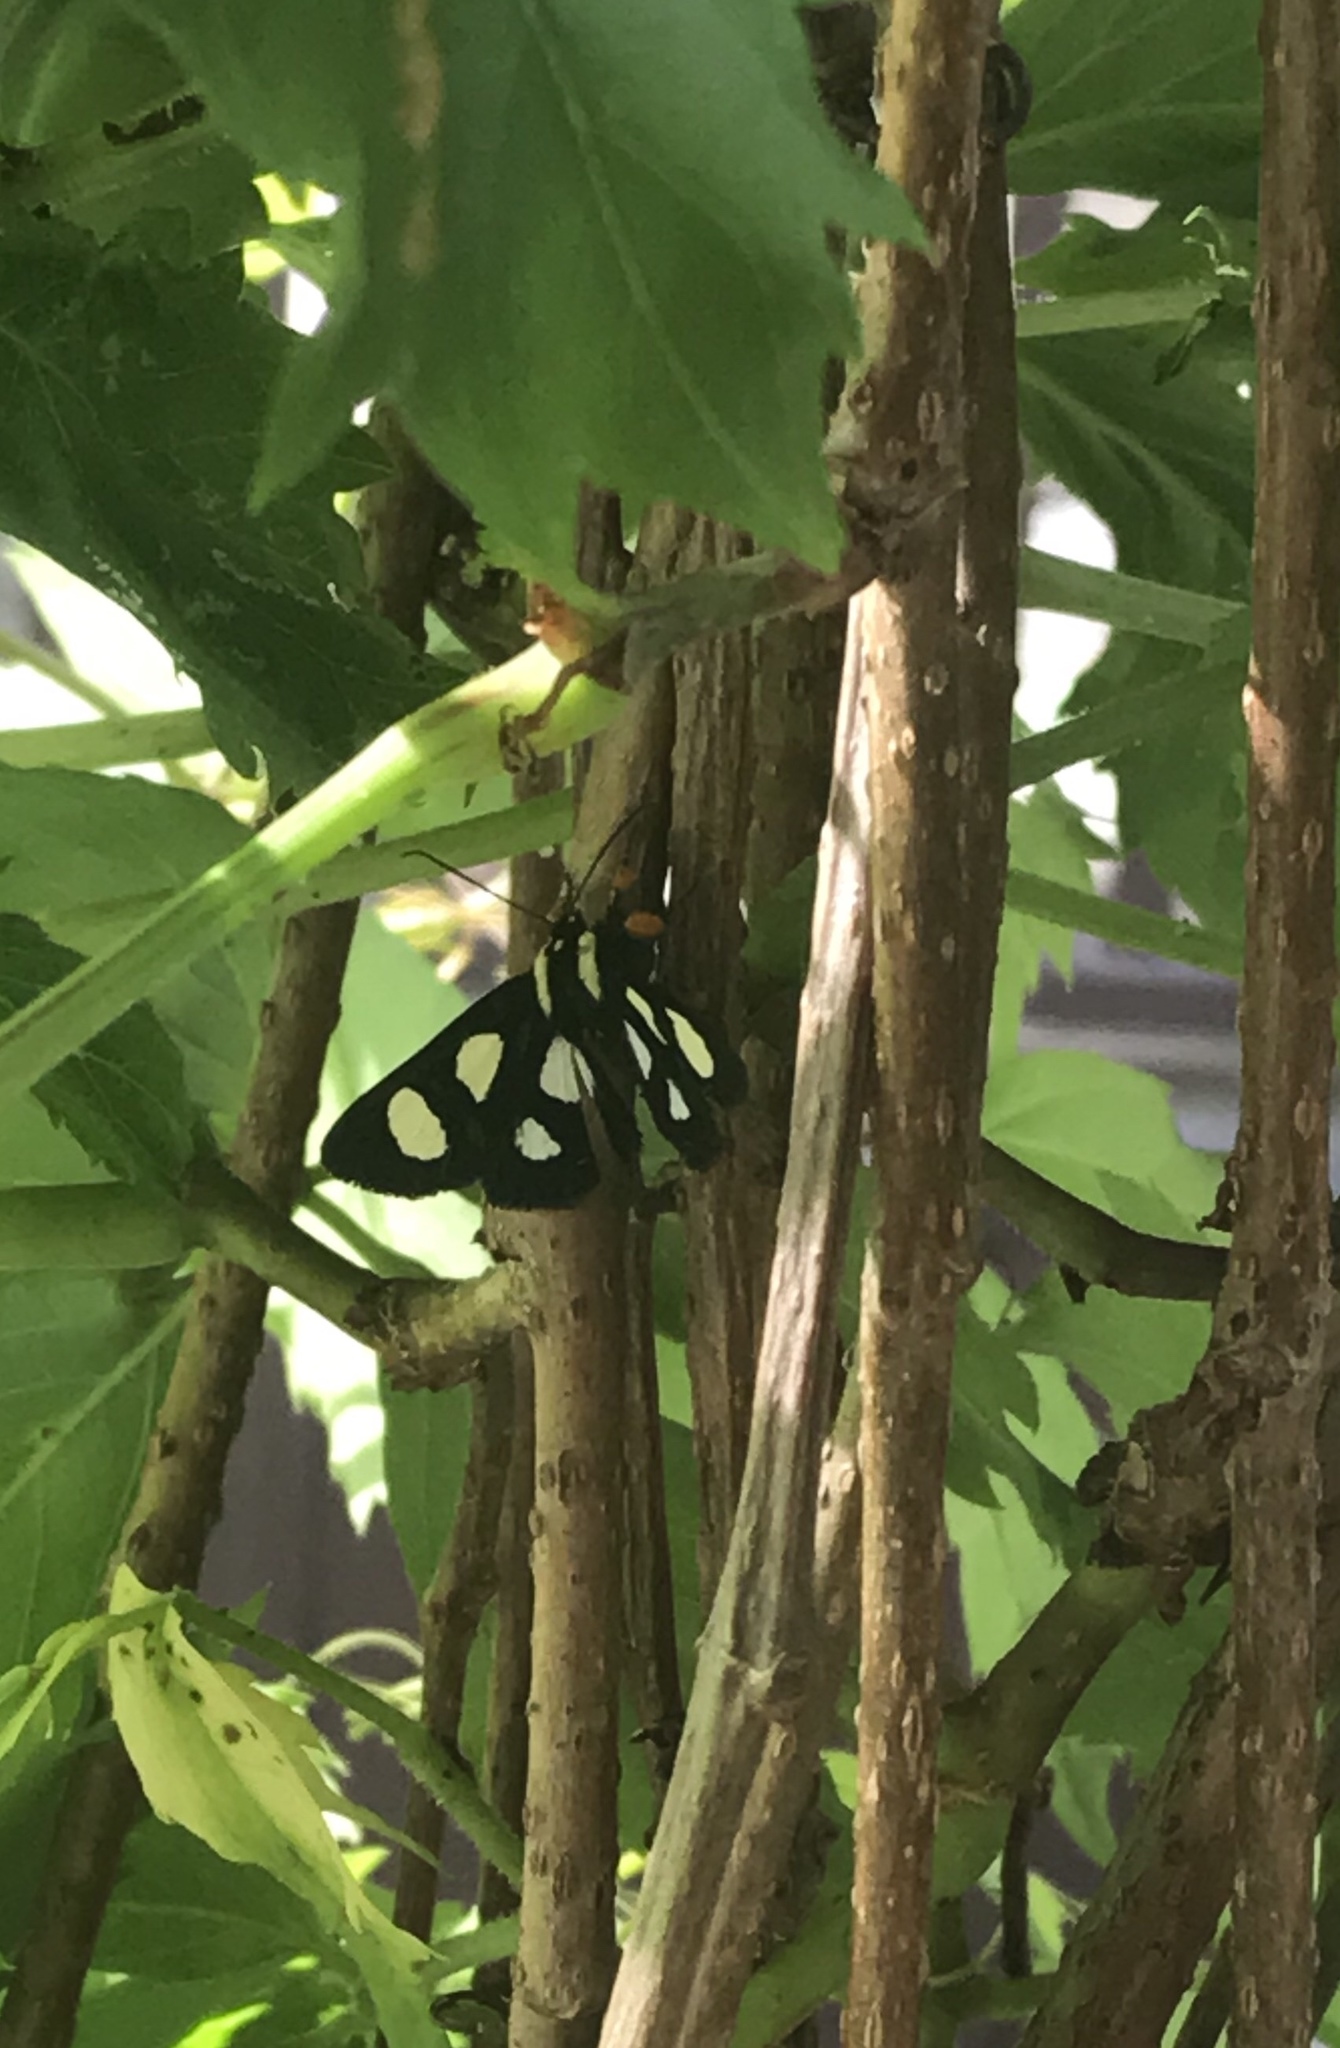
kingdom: Animalia
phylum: Arthropoda
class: Insecta
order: Lepidoptera
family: Noctuidae
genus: Alypia
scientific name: Alypia octomaculata
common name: Eight-spotted forester
